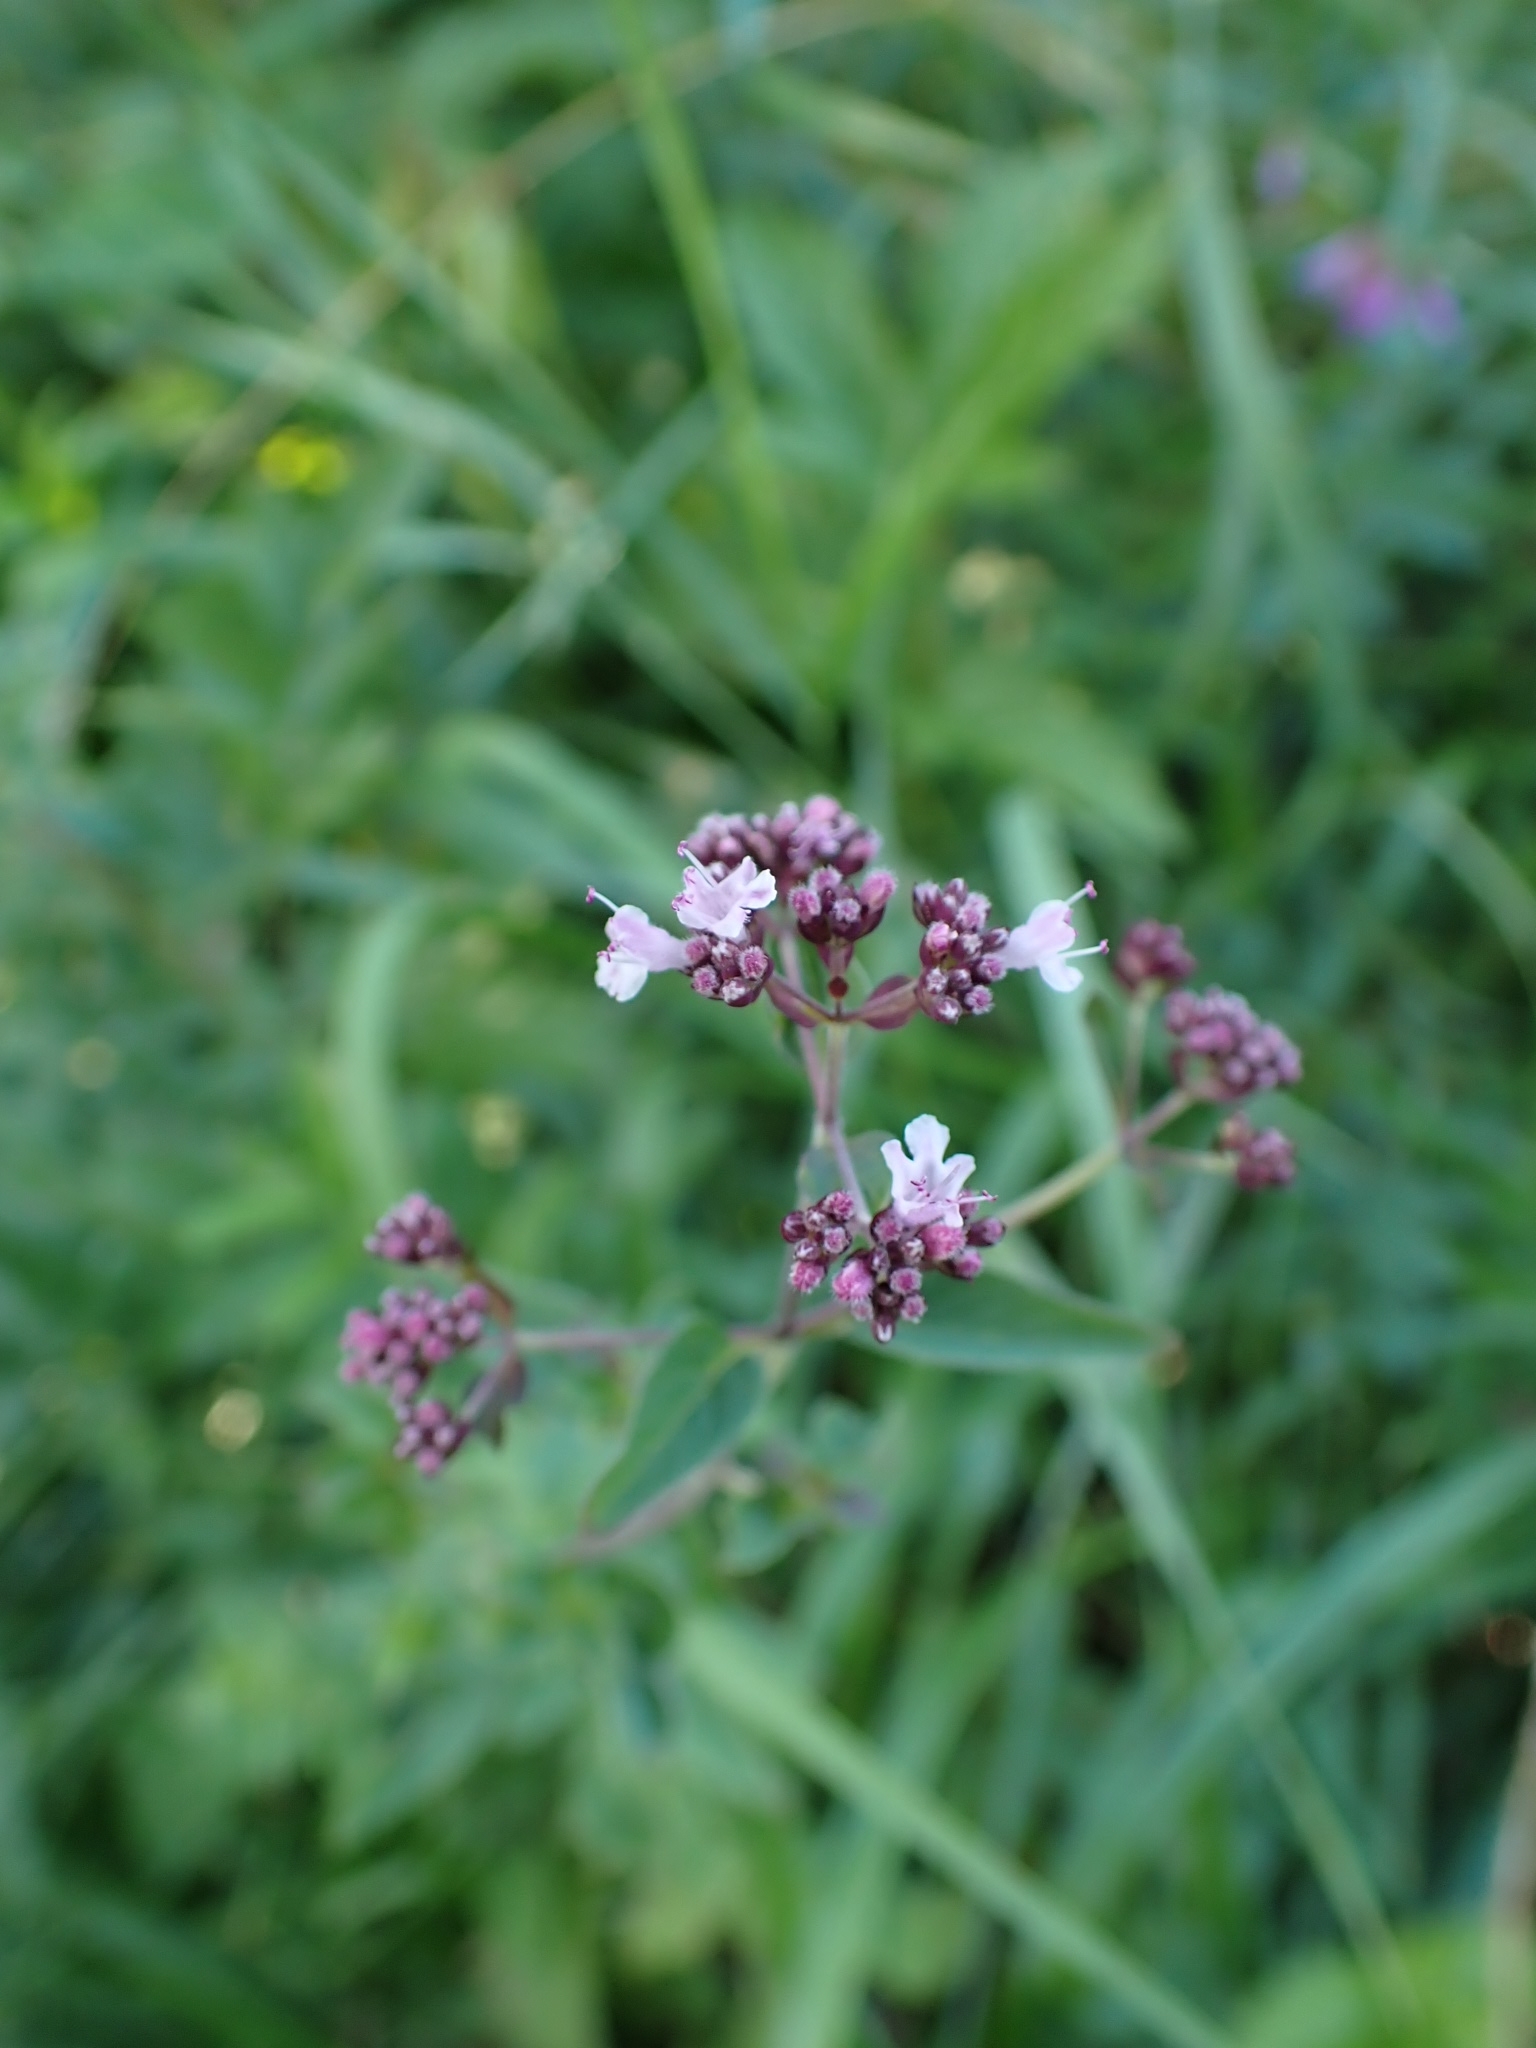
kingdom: Plantae
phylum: Tracheophyta
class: Magnoliopsida
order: Lamiales
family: Lamiaceae
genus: Origanum
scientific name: Origanum vulgare
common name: Wild marjoram
